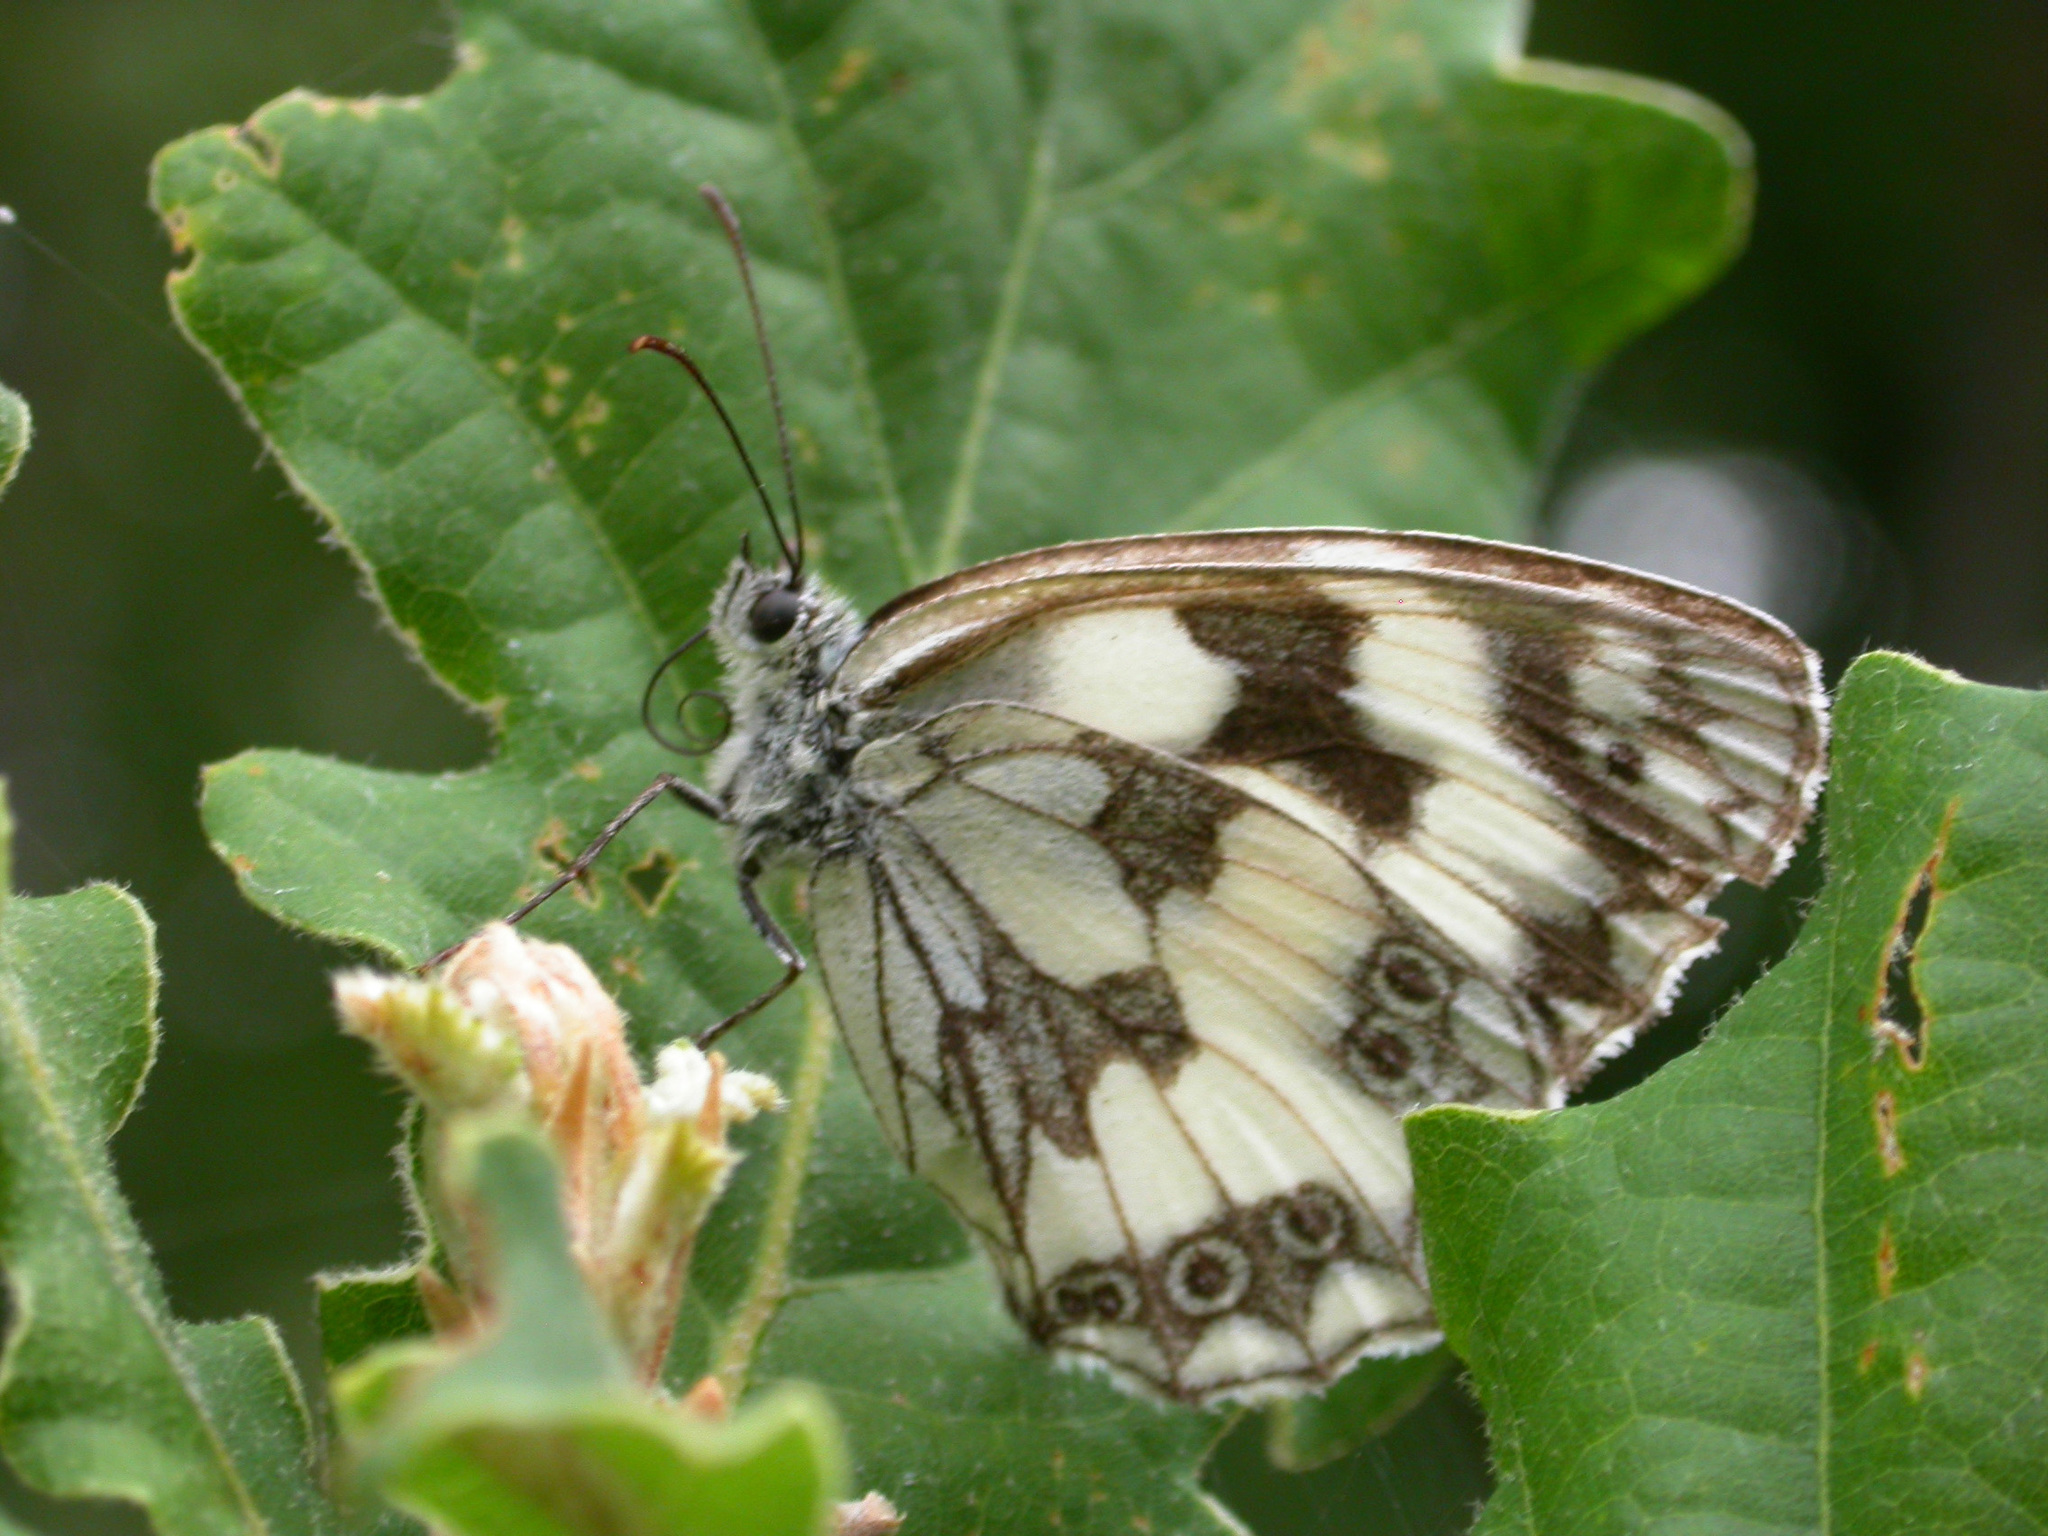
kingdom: Animalia
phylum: Arthropoda
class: Insecta
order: Lepidoptera
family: Nymphalidae
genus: Melanargia
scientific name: Melanargia galathea
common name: Marbled white
